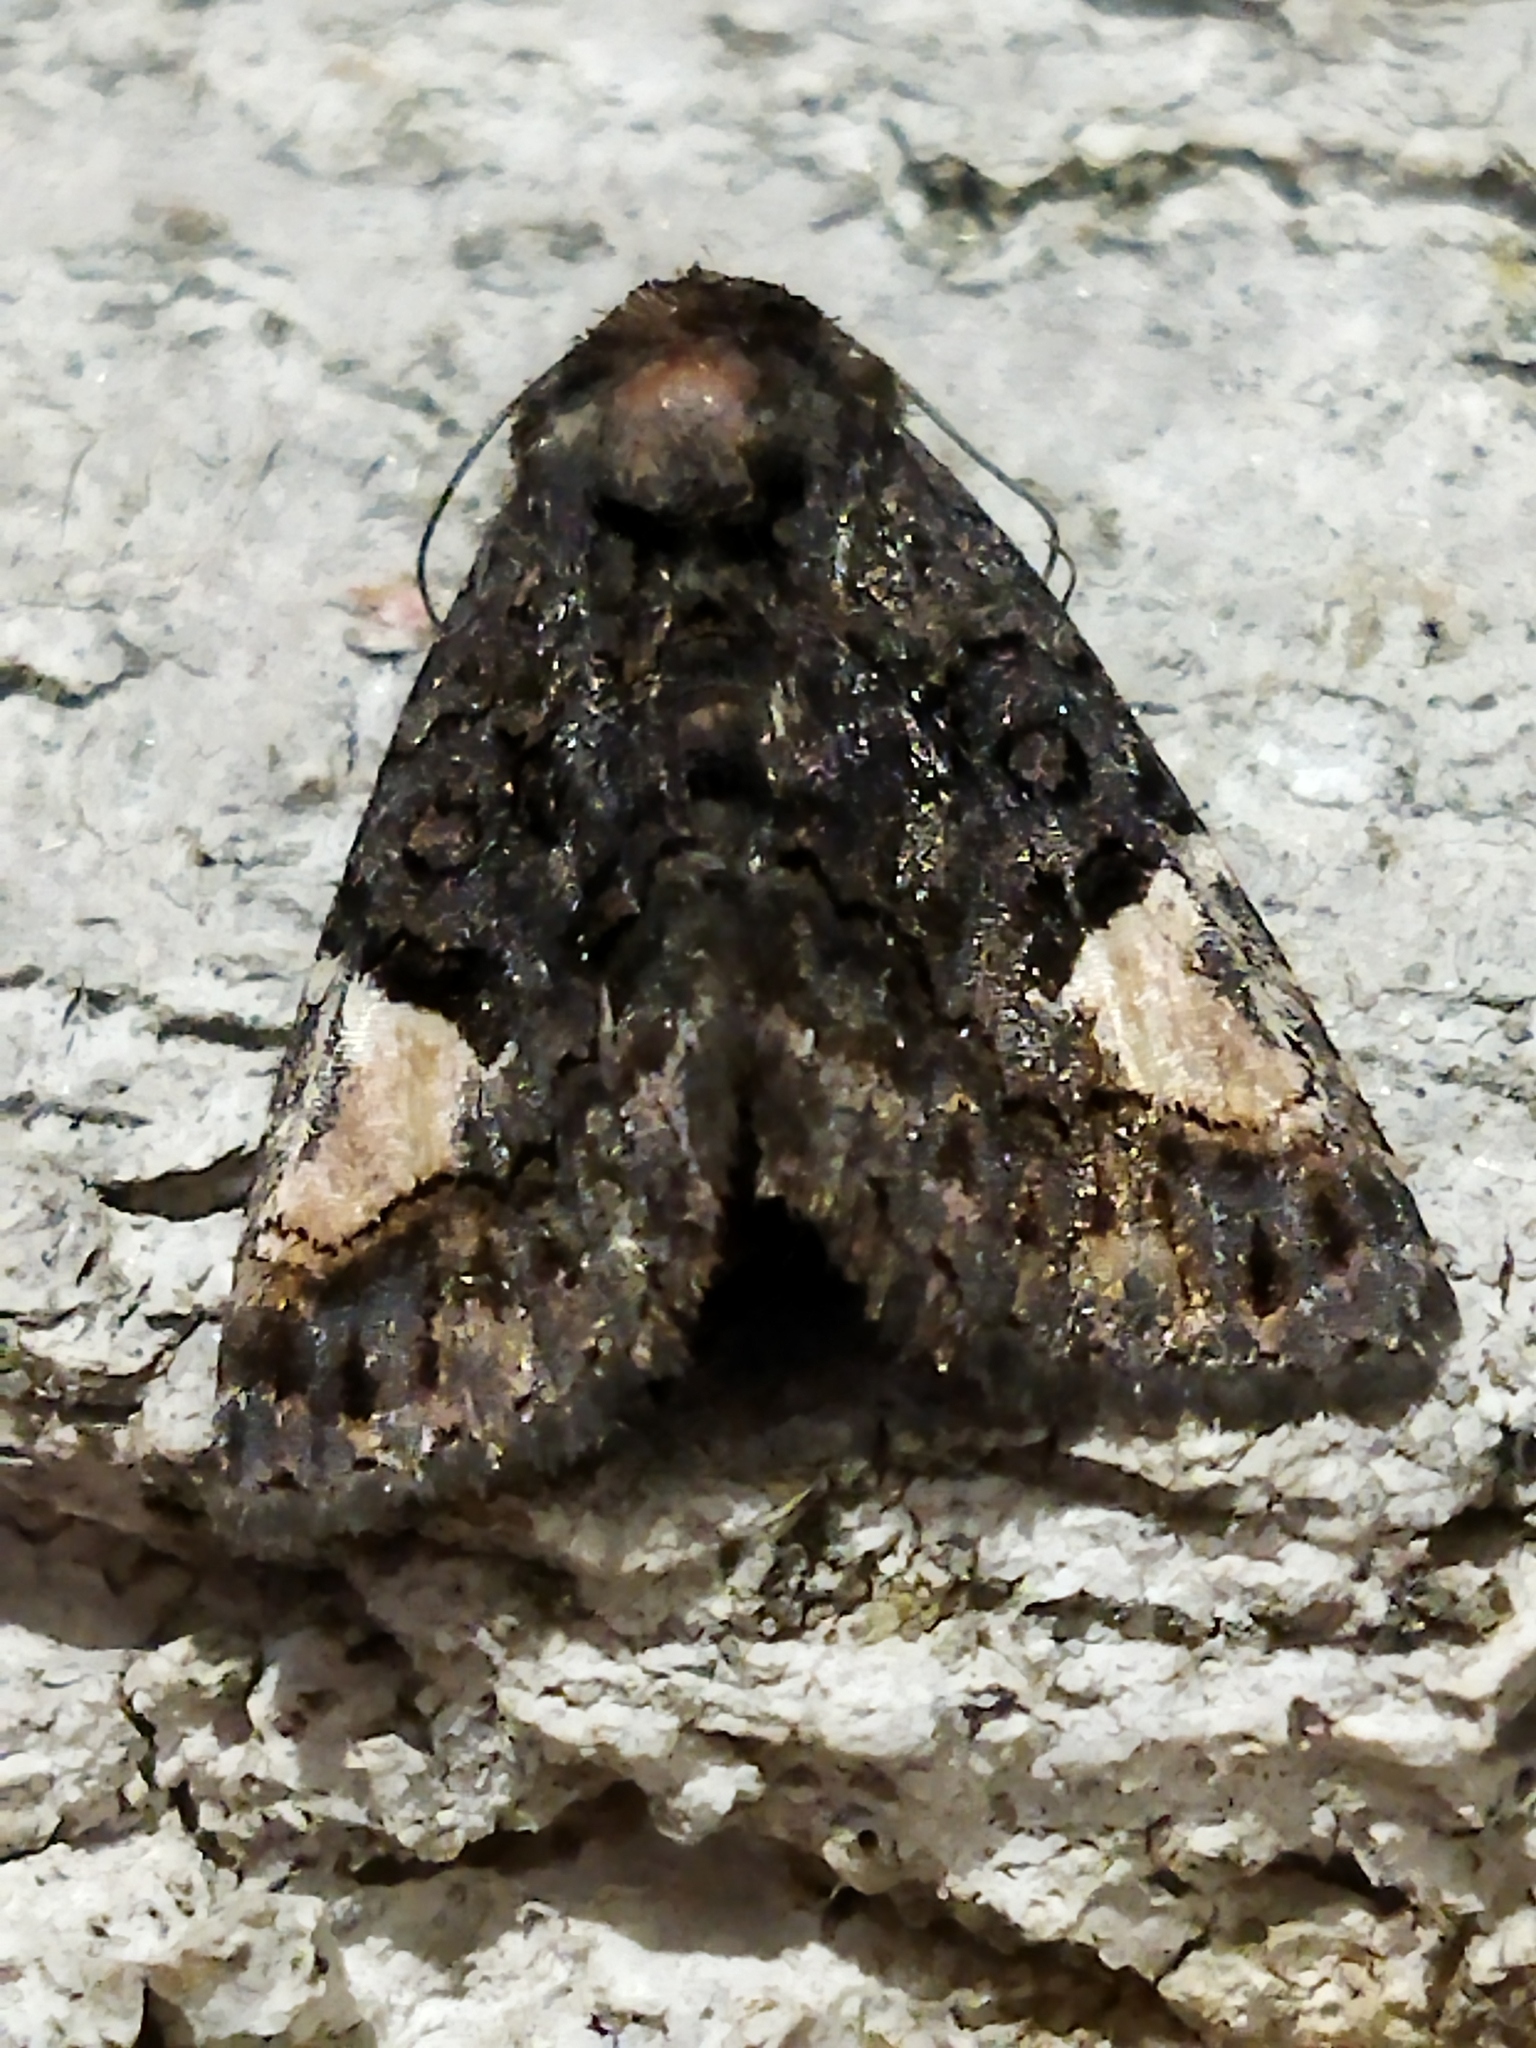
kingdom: Animalia
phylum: Arthropoda
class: Insecta
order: Lepidoptera
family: Noctuidae
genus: Aedia
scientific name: Aedia funesta
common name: The druid
